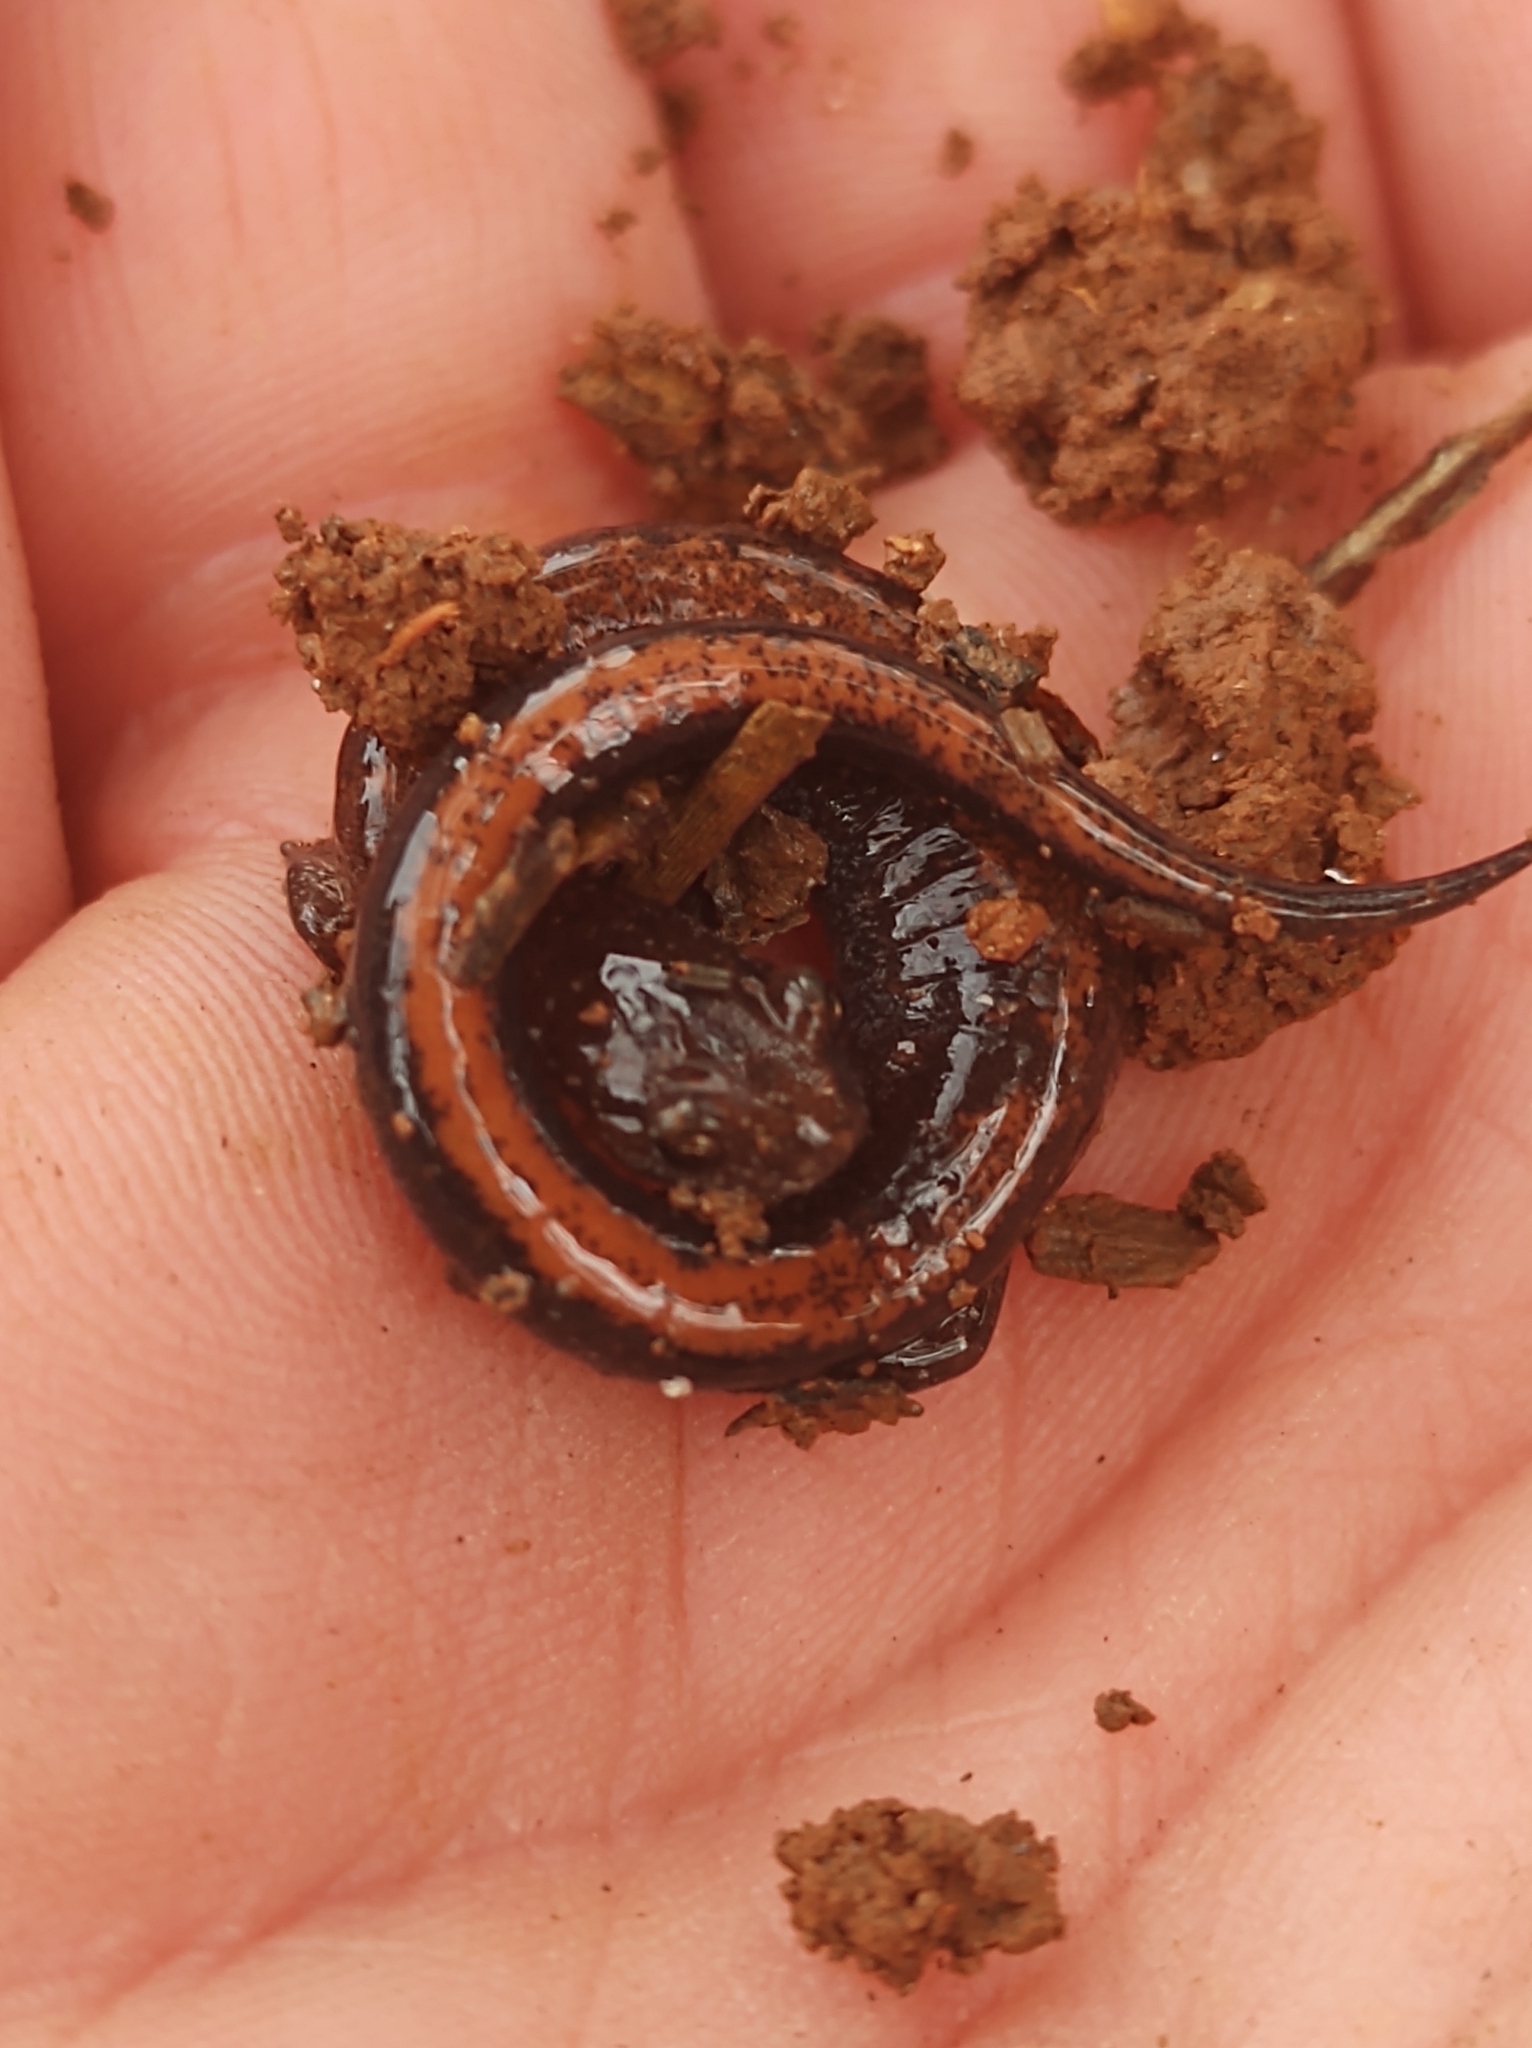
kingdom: Animalia
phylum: Chordata
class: Amphibia
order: Caudata
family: Plethodontidae
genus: Plethodon
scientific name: Plethodon serratus
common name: Southern red-backed salamander
